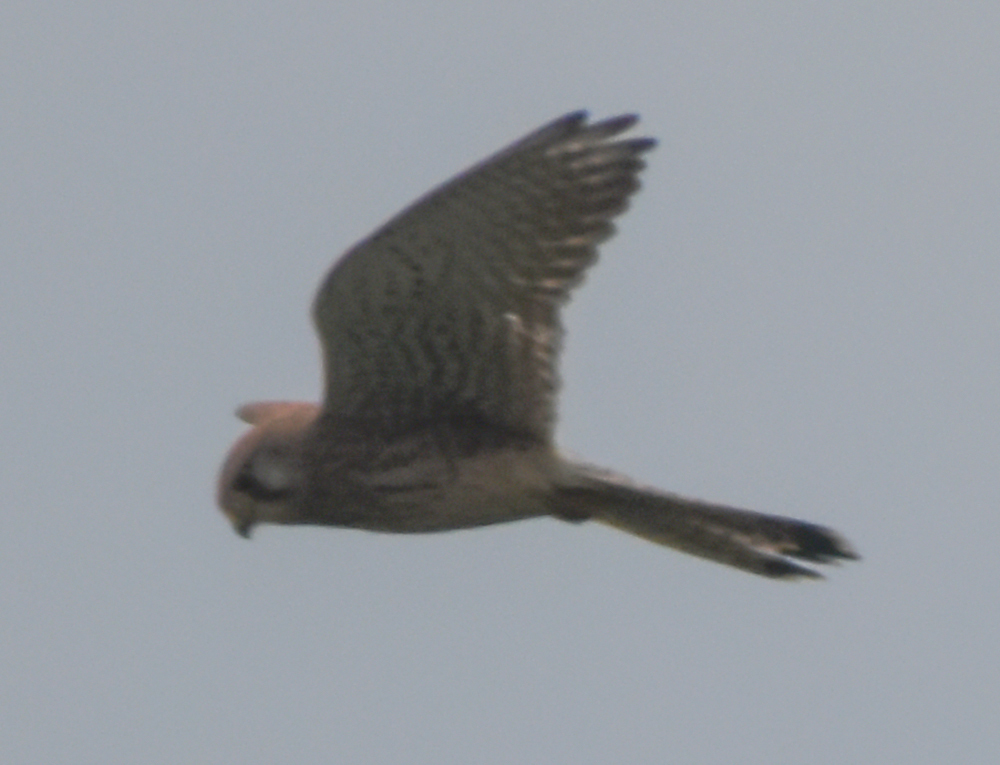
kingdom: Animalia
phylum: Chordata
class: Aves
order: Falconiformes
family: Falconidae
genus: Falco
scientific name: Falco tinnunculus
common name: Common kestrel
